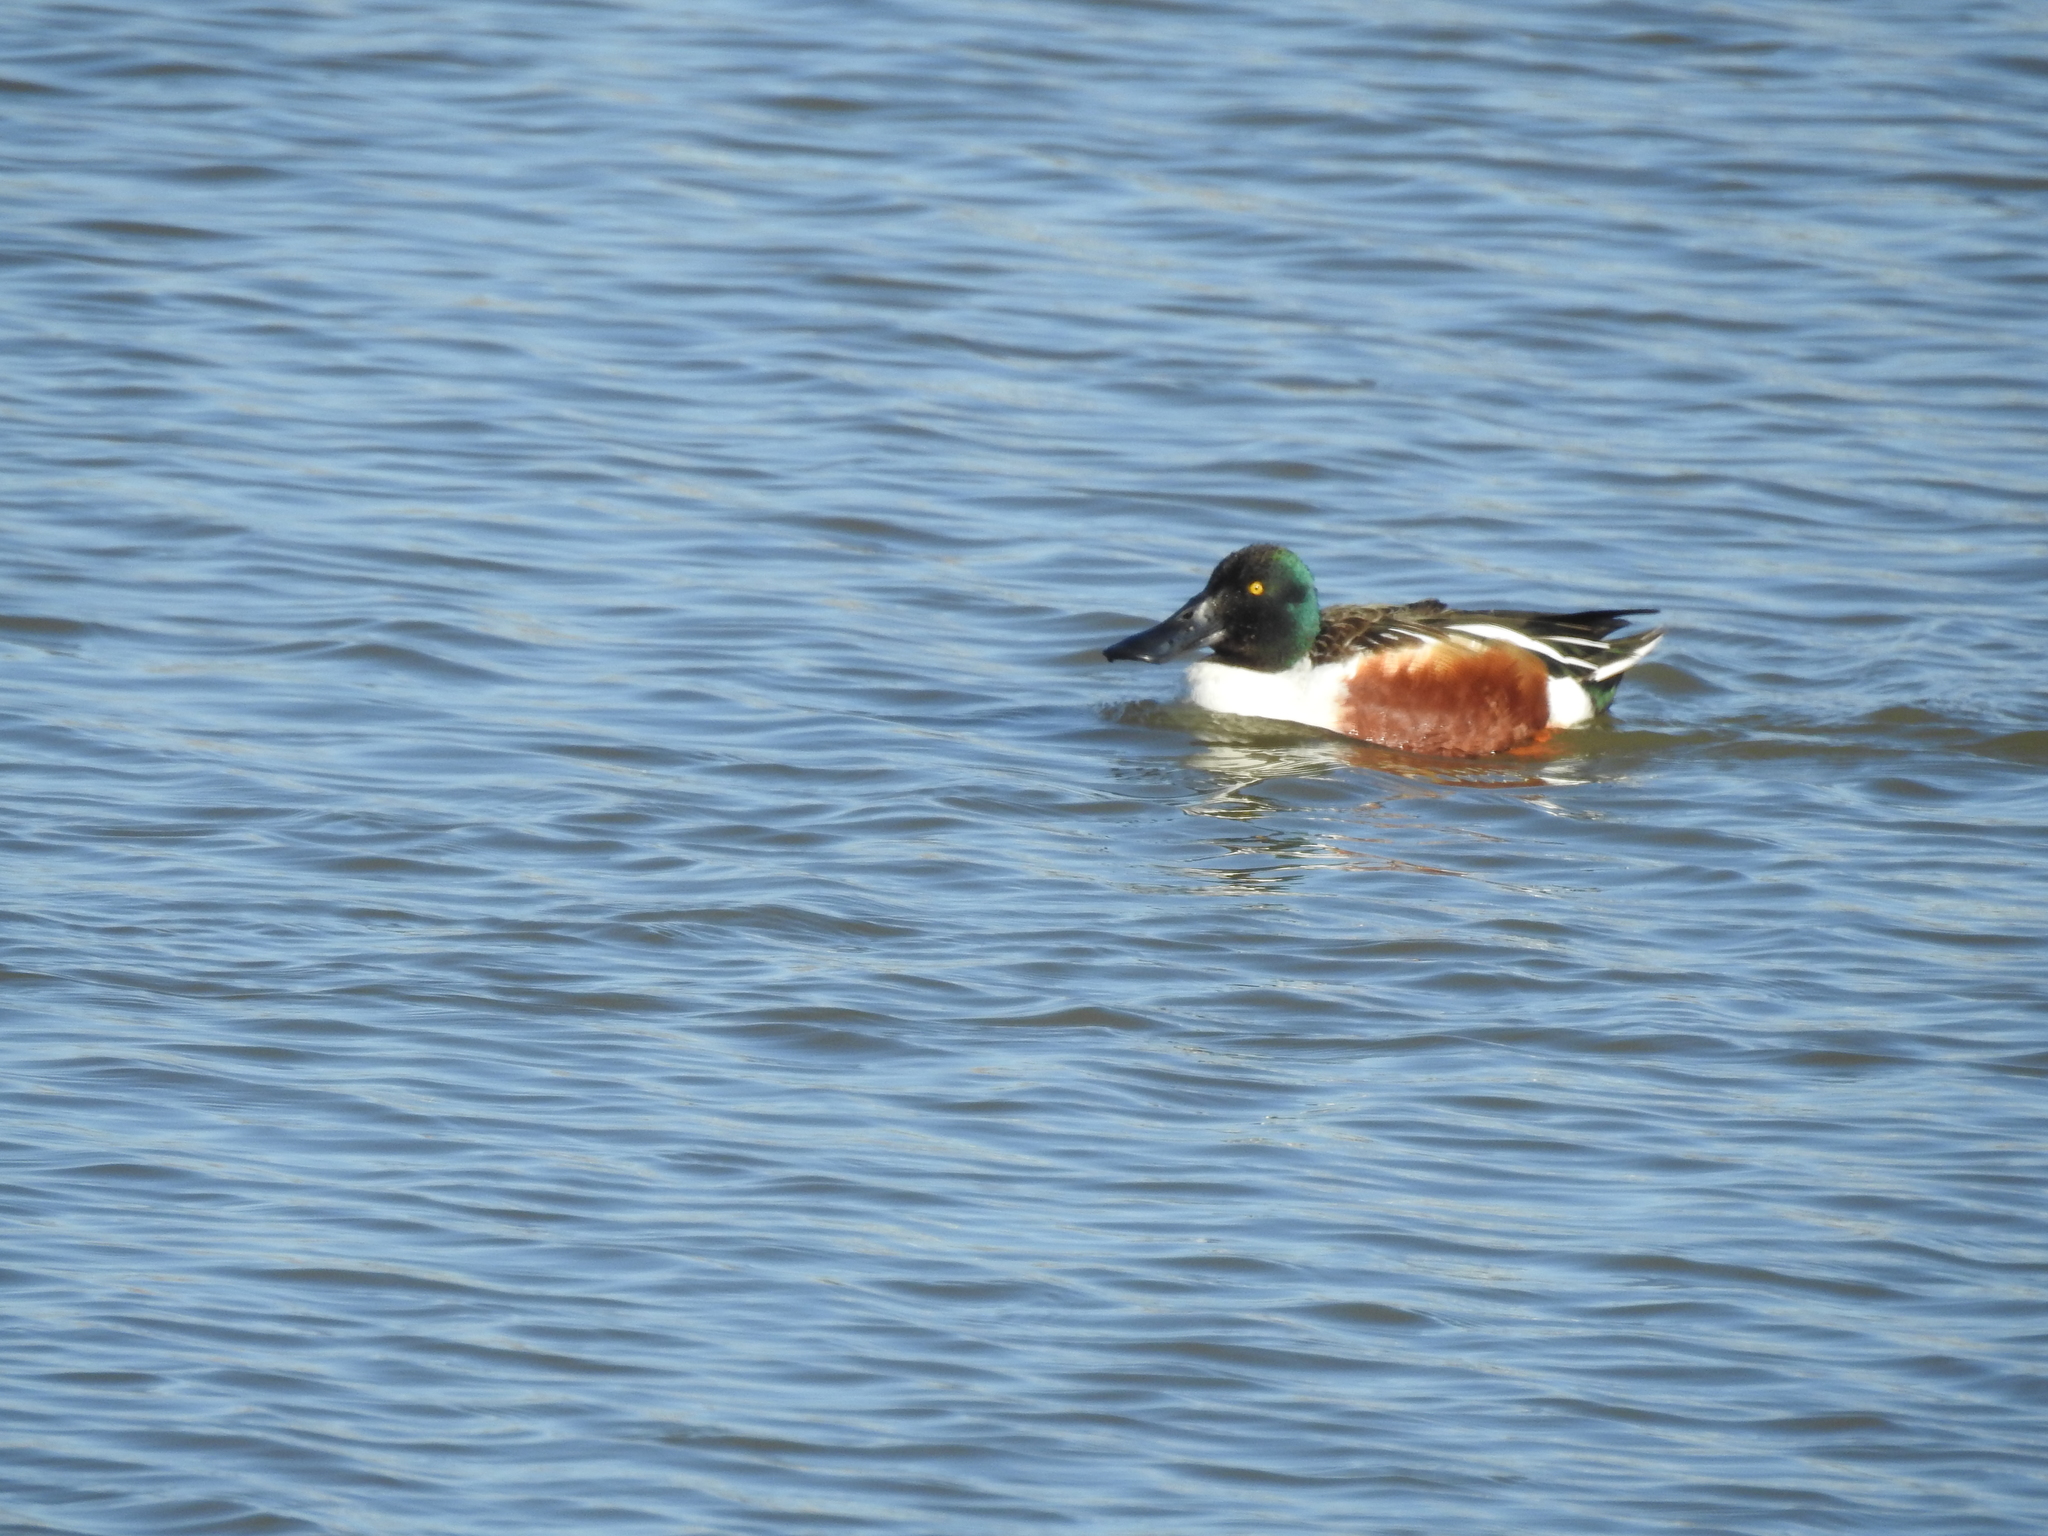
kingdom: Animalia
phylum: Chordata
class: Aves
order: Anseriformes
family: Anatidae
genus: Spatula
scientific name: Spatula clypeata
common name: Northern shoveler
